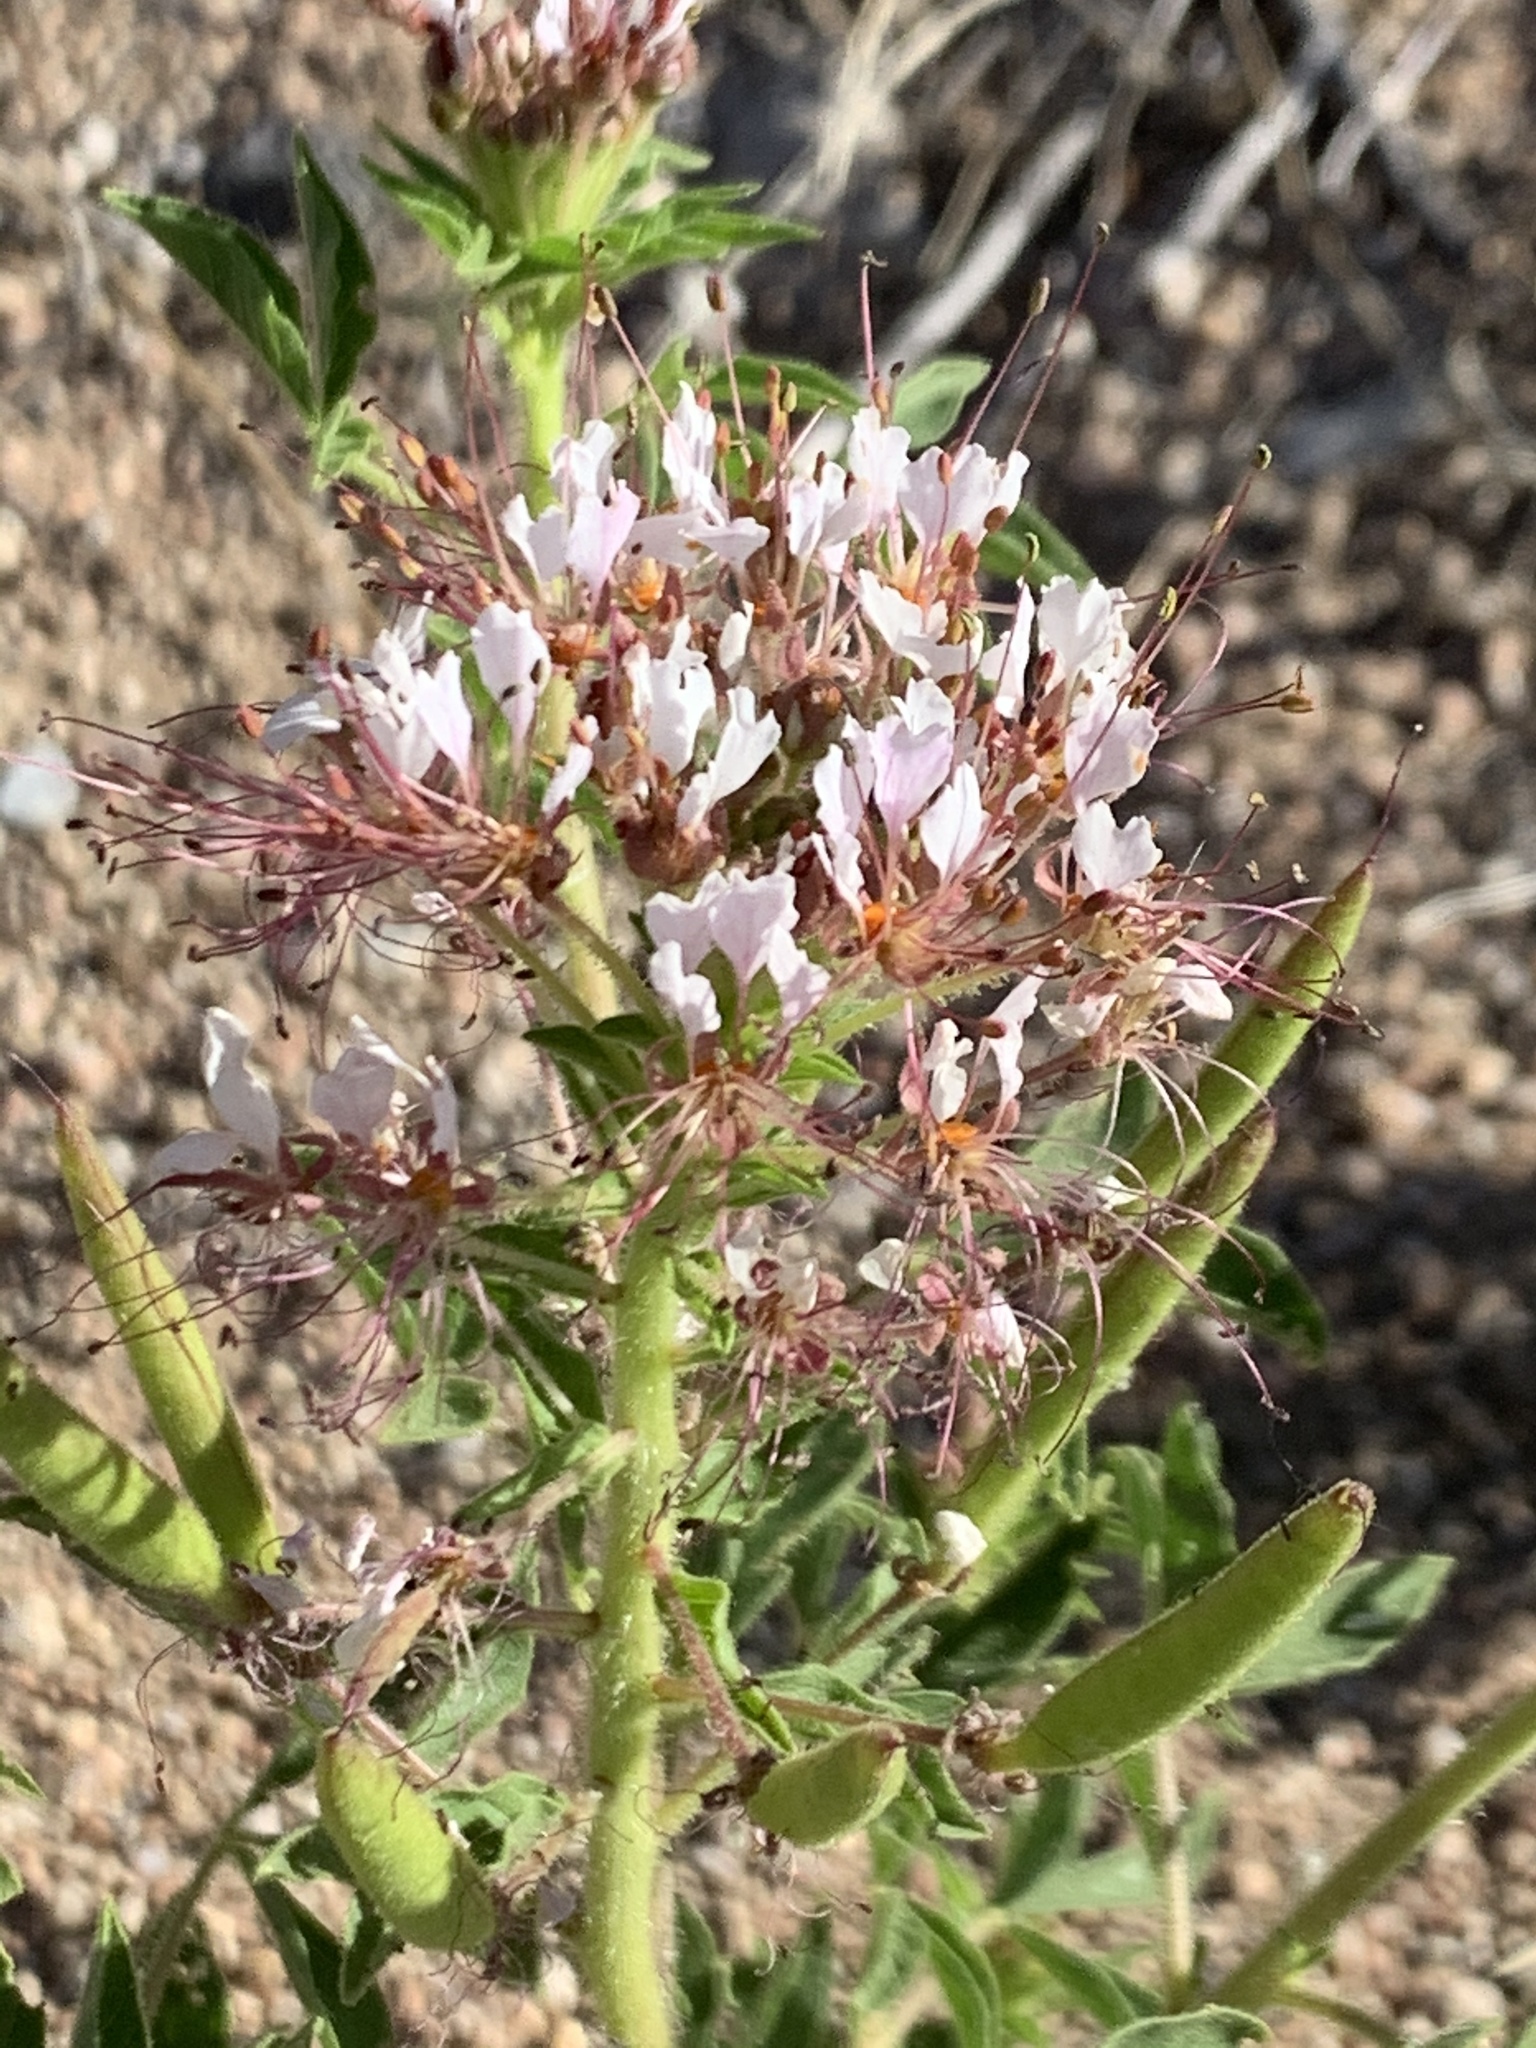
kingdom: Plantae
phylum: Tracheophyta
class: Magnoliopsida
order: Brassicales
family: Cleomaceae
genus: Polanisia
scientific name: Polanisia dodecandra
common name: Clammyweed
